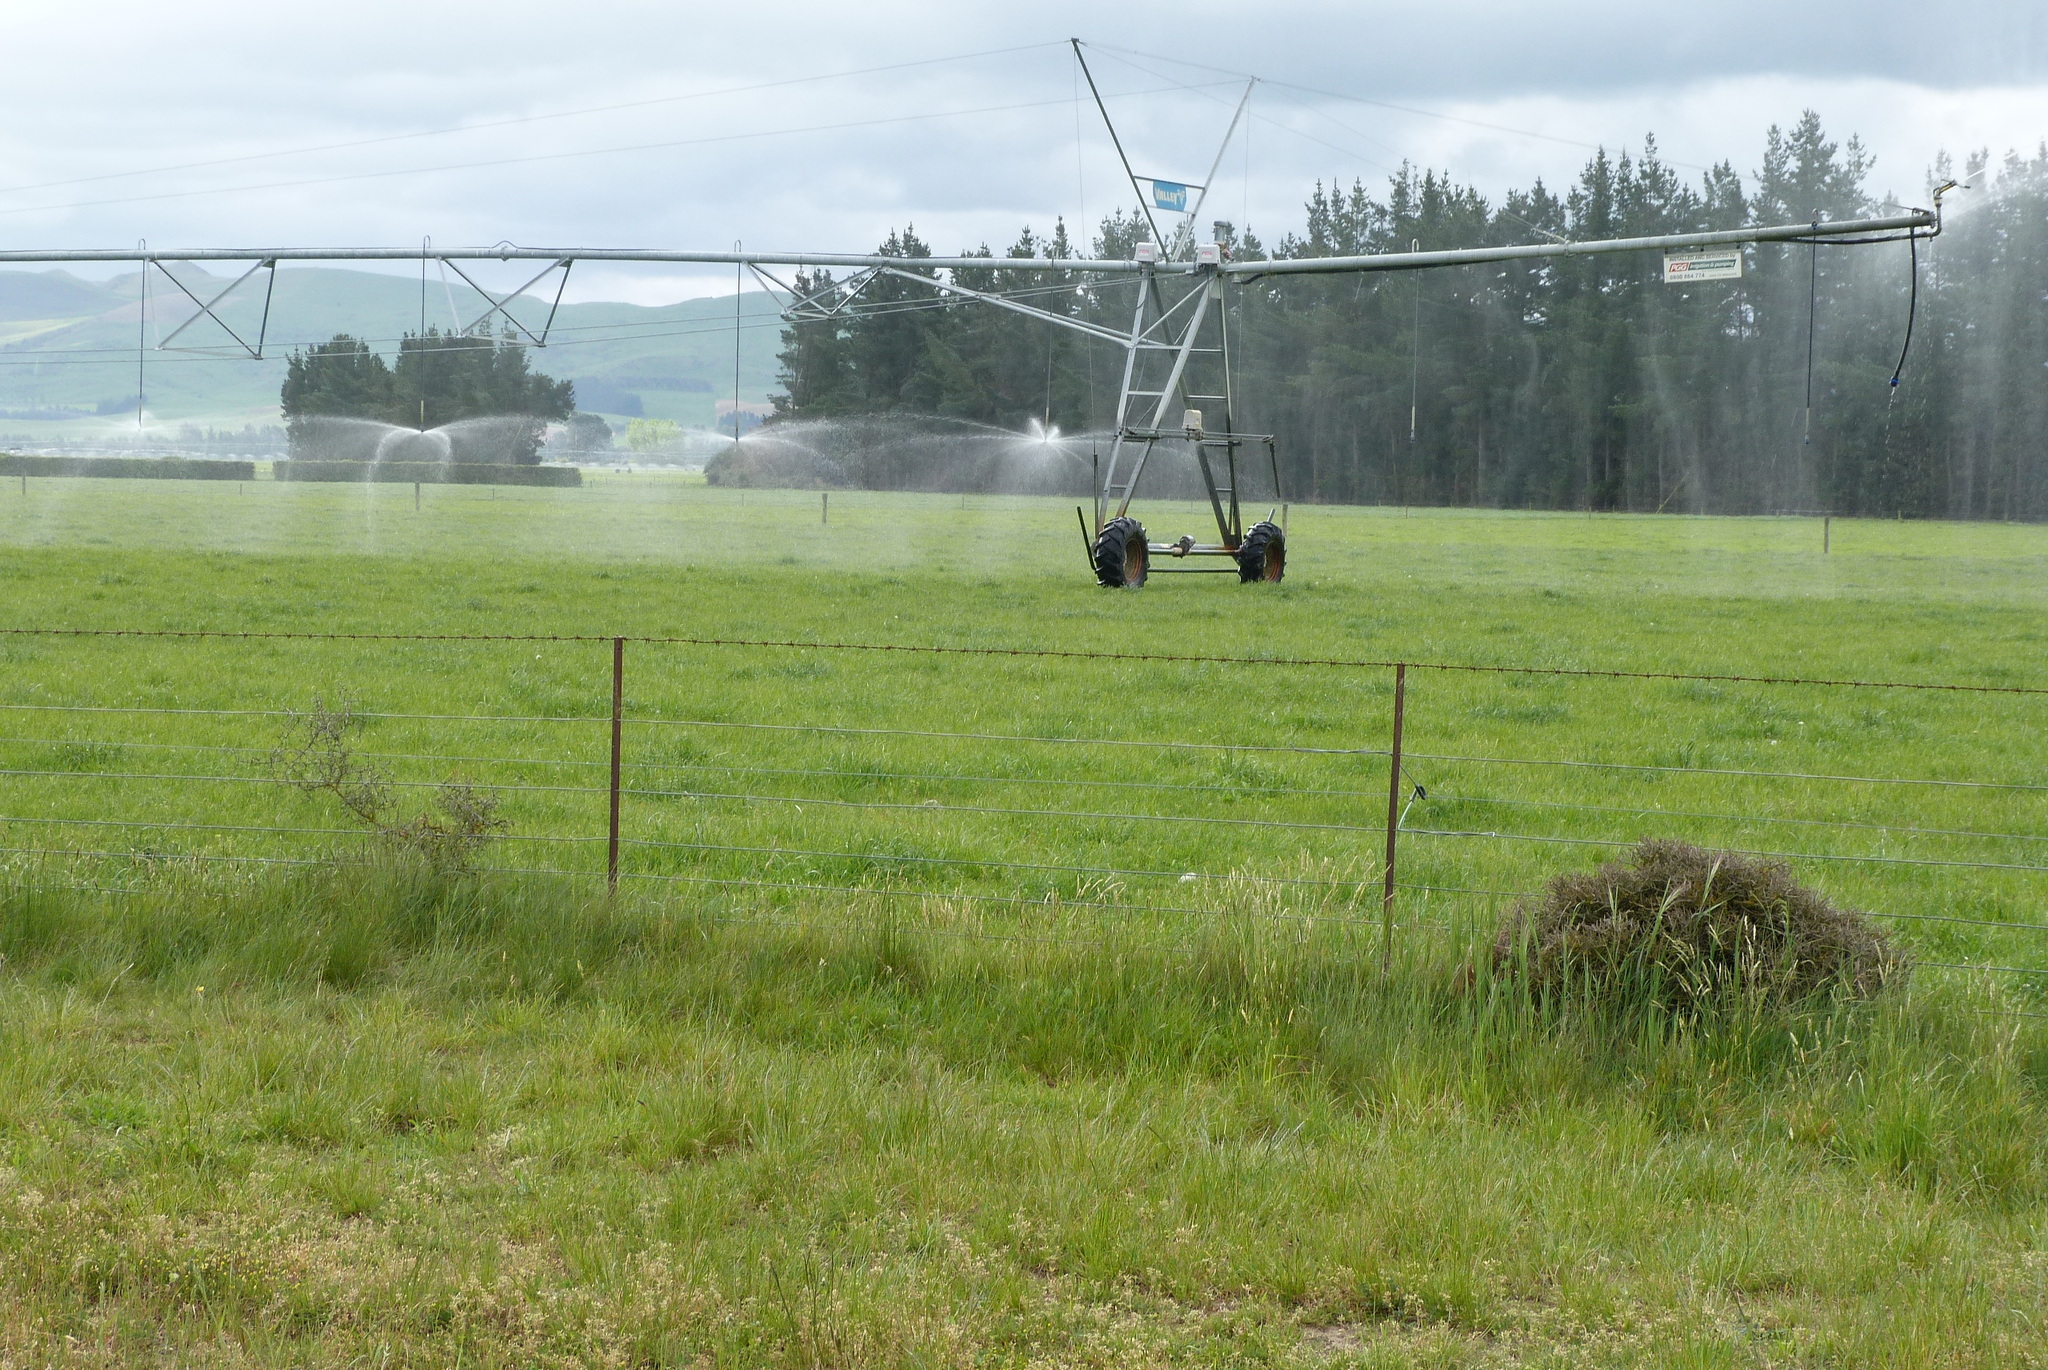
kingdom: Plantae
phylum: Tracheophyta
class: Magnoliopsida
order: Malpighiales
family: Violaceae
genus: Melicytus
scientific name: Melicytus alpinus
